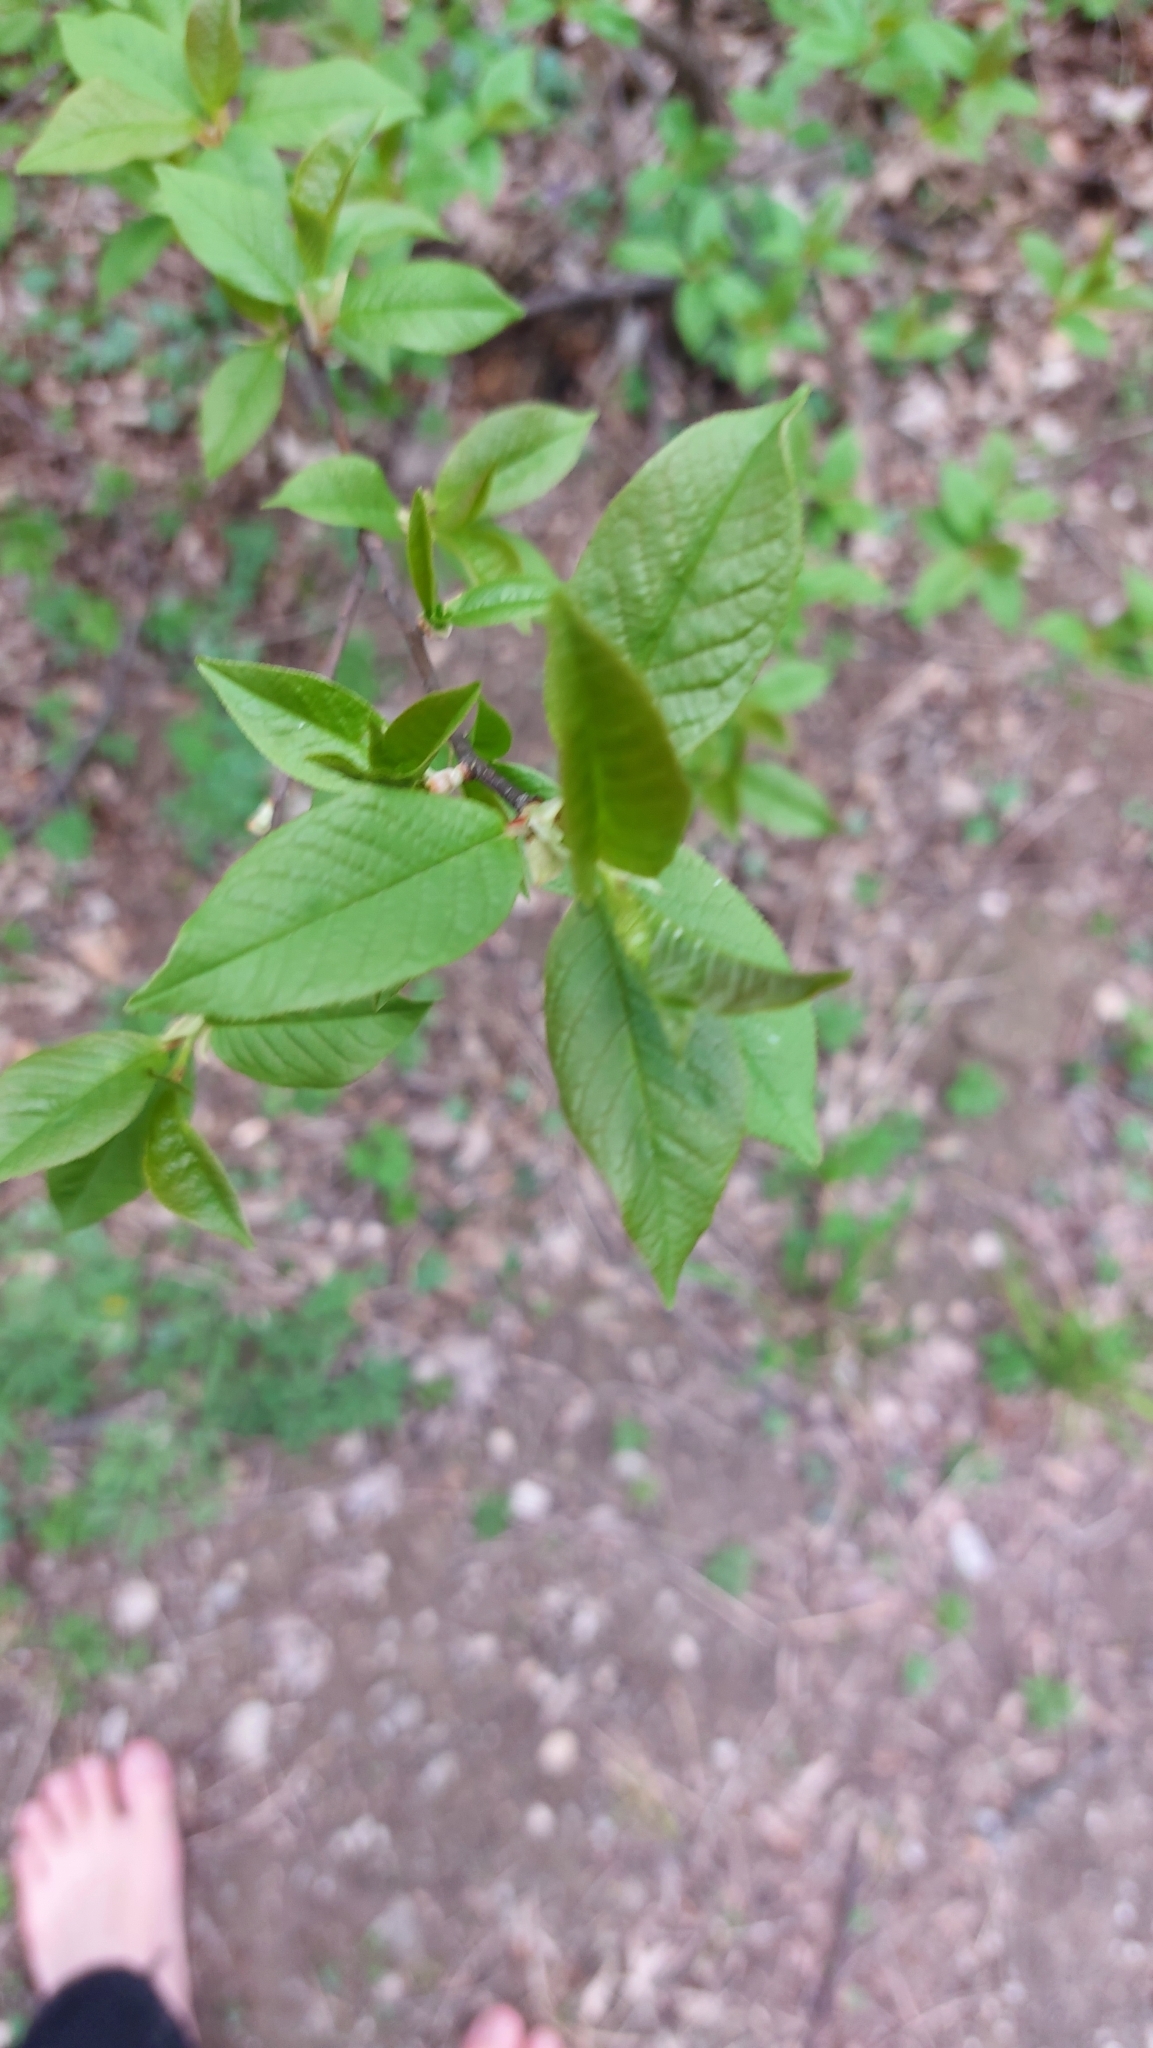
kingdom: Plantae
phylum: Tracheophyta
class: Magnoliopsida
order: Rosales
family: Rosaceae
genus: Prunus
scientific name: Prunus padus
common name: Bird cherry
